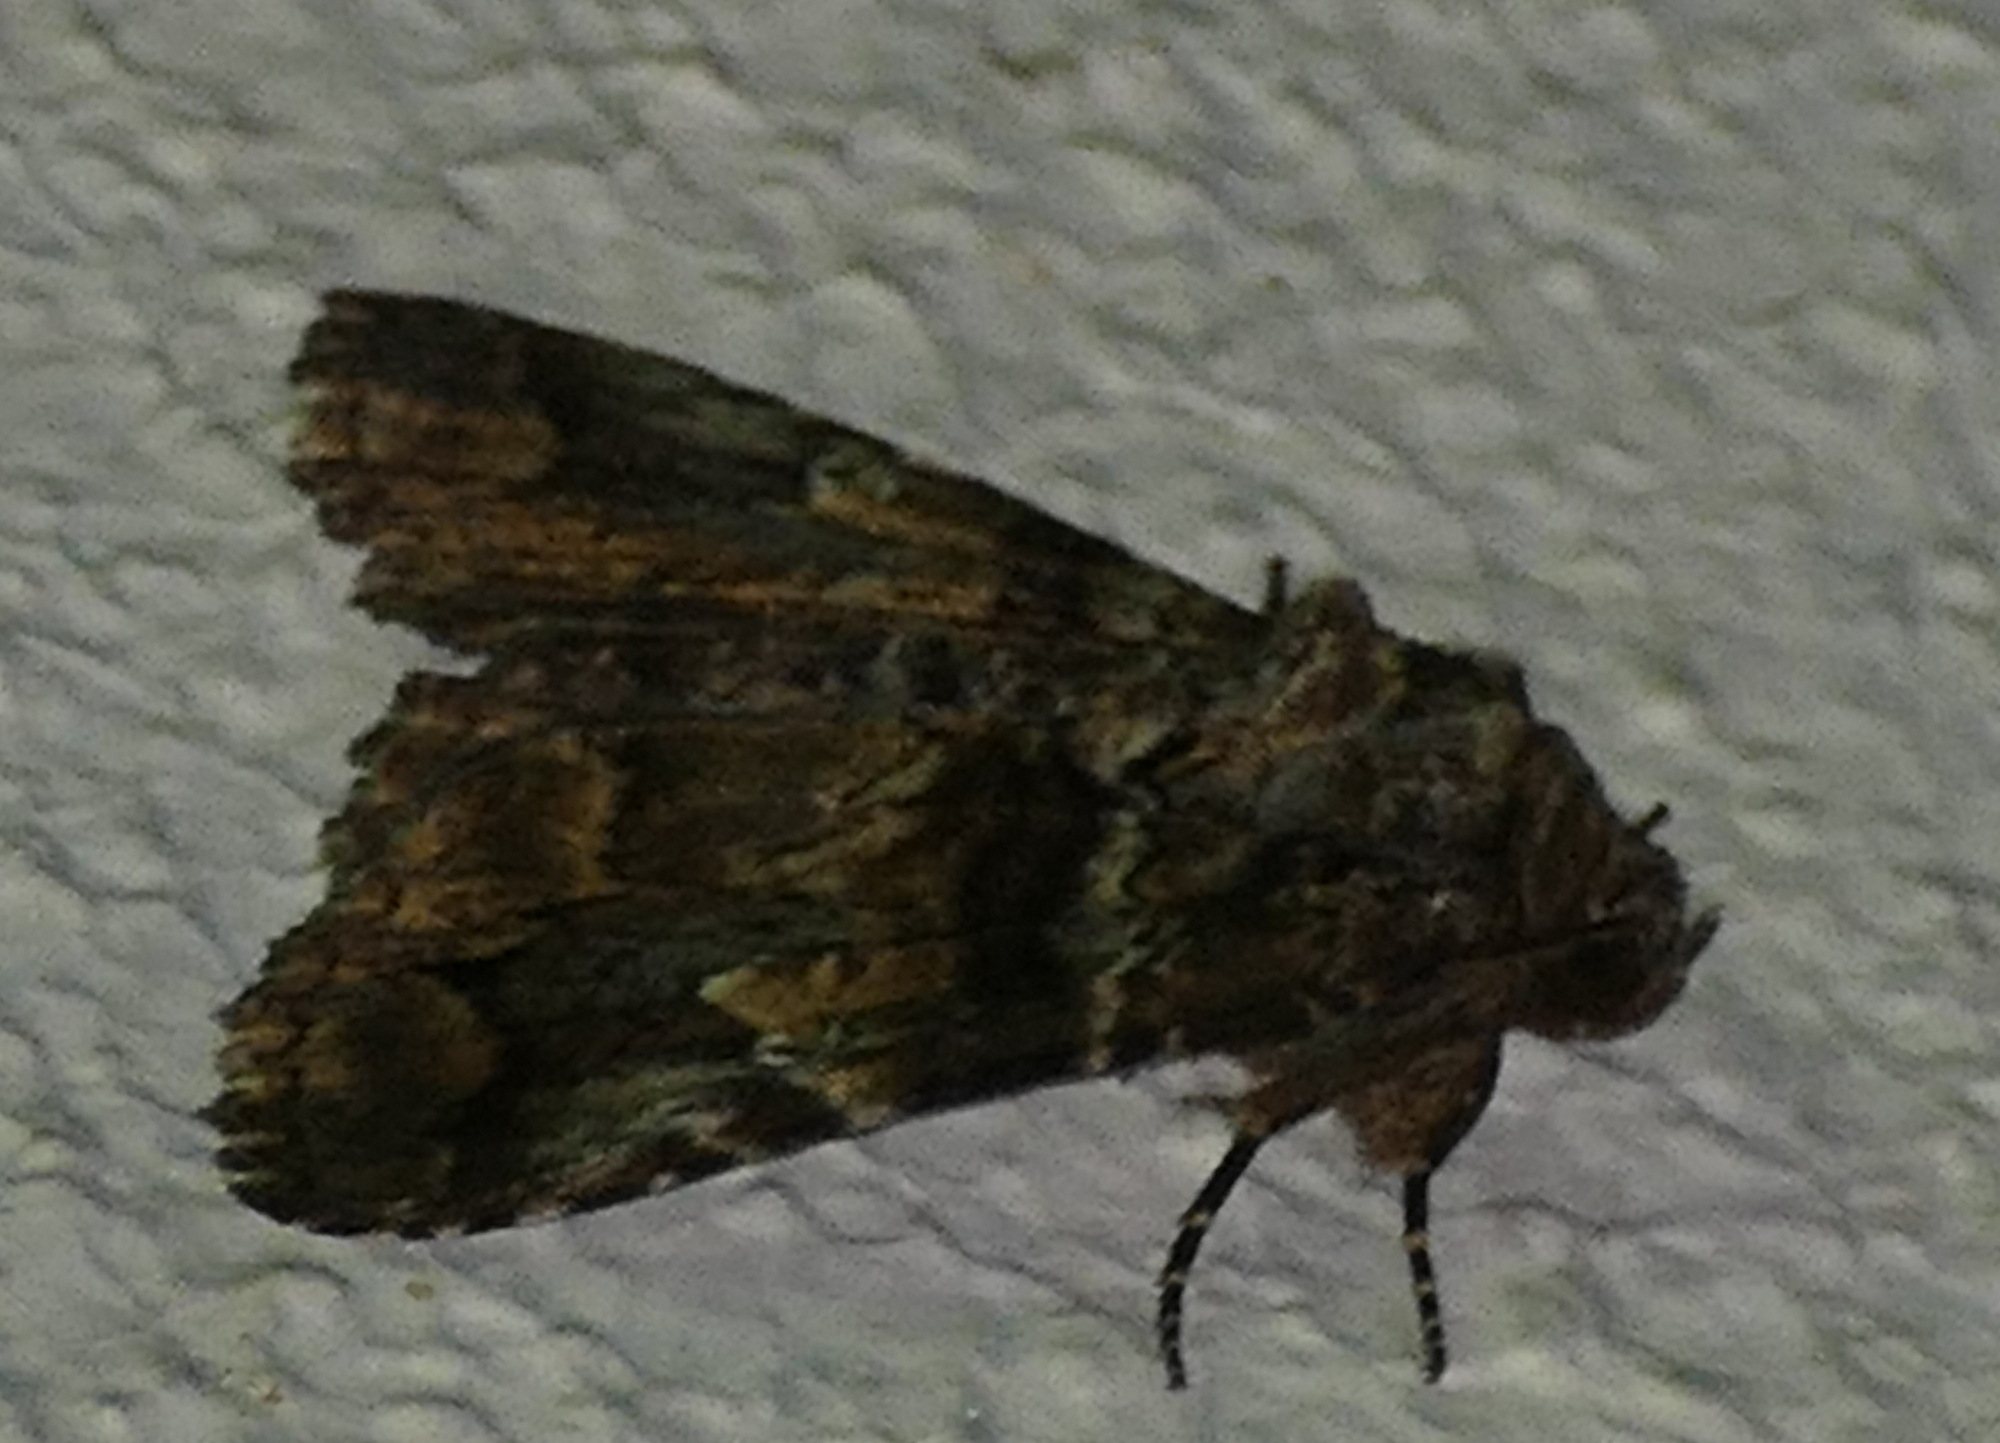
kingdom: Animalia
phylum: Arthropoda
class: Insecta
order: Lepidoptera
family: Erebidae
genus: Metria
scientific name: Metria amella
